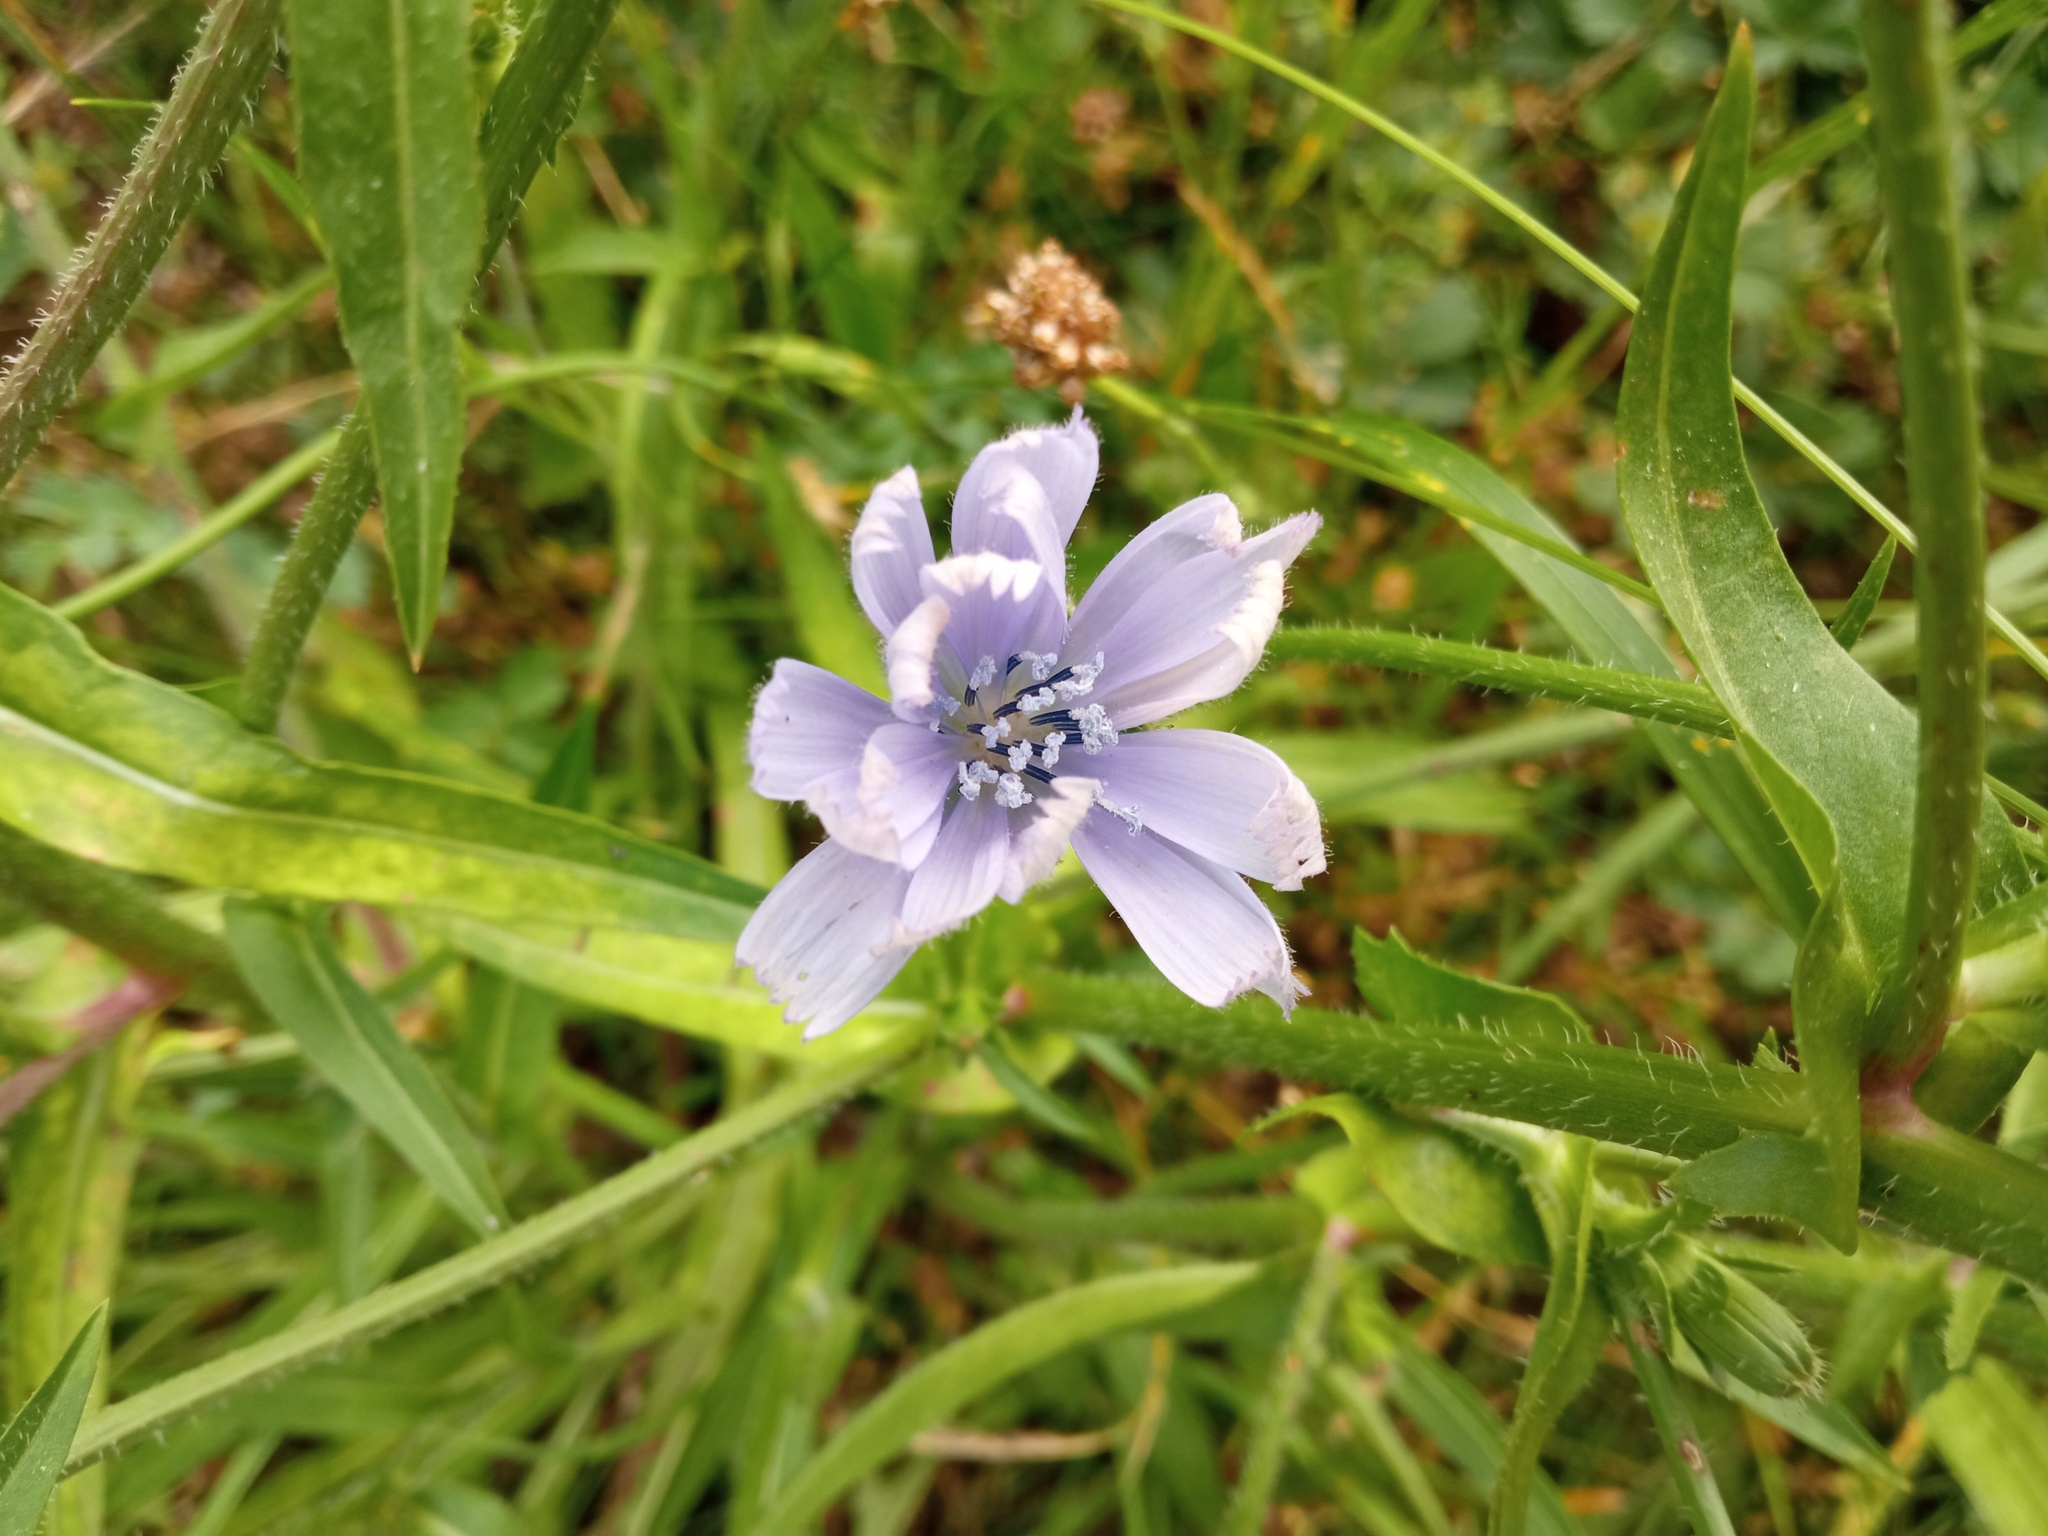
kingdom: Plantae
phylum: Tracheophyta
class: Magnoliopsida
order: Asterales
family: Asteraceae
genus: Cichorium
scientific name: Cichorium intybus
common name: Chicory
